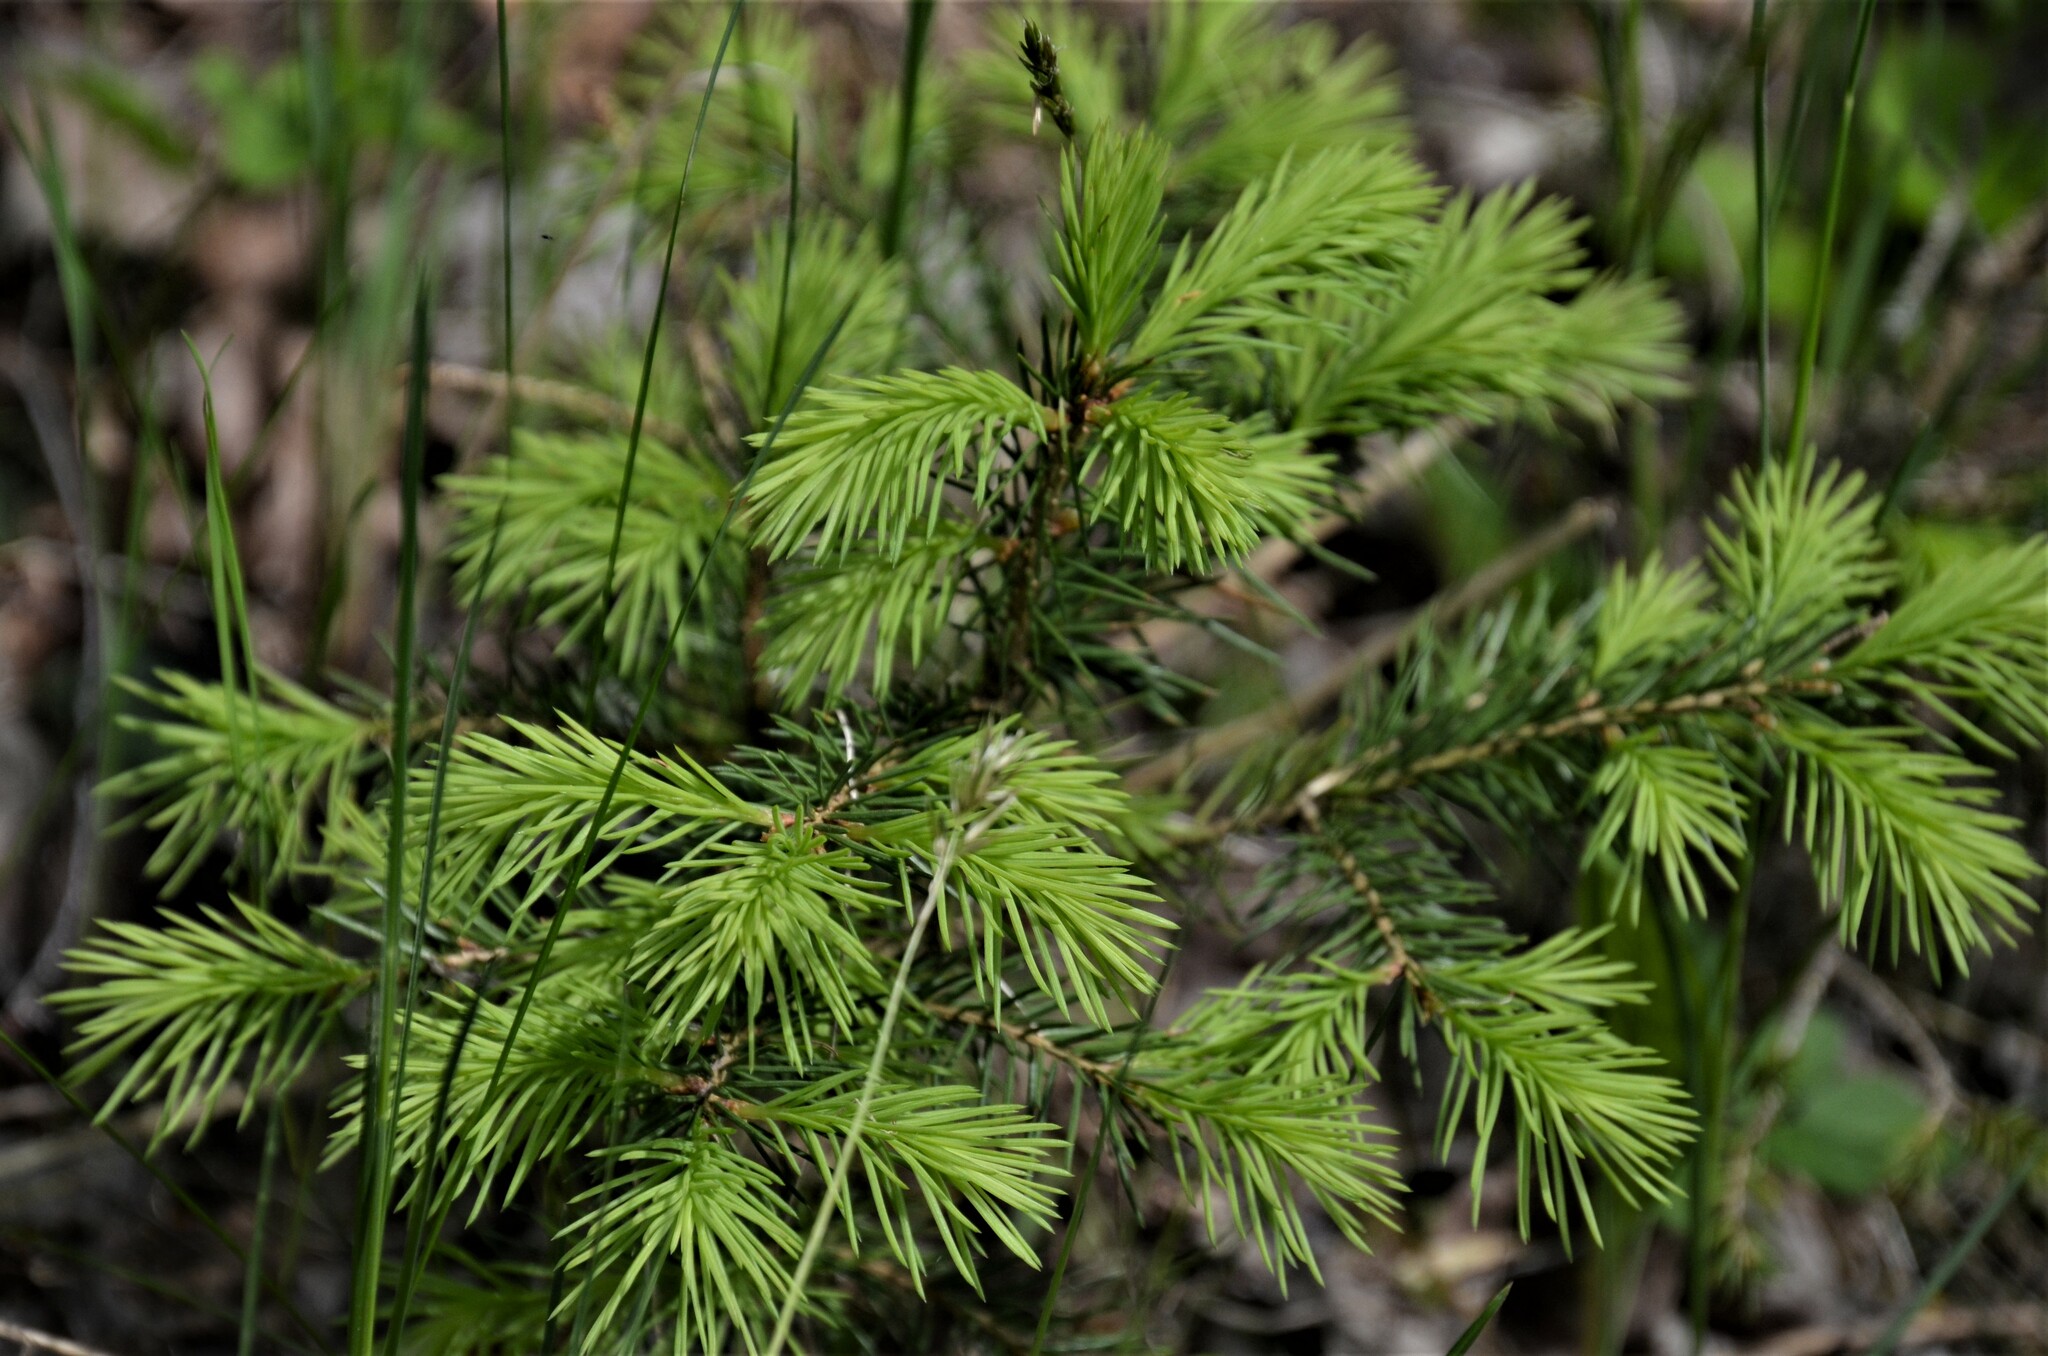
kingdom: Plantae
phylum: Tracheophyta
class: Pinopsida
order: Pinales
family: Pinaceae
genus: Picea
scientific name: Picea abies
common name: Norway spruce
